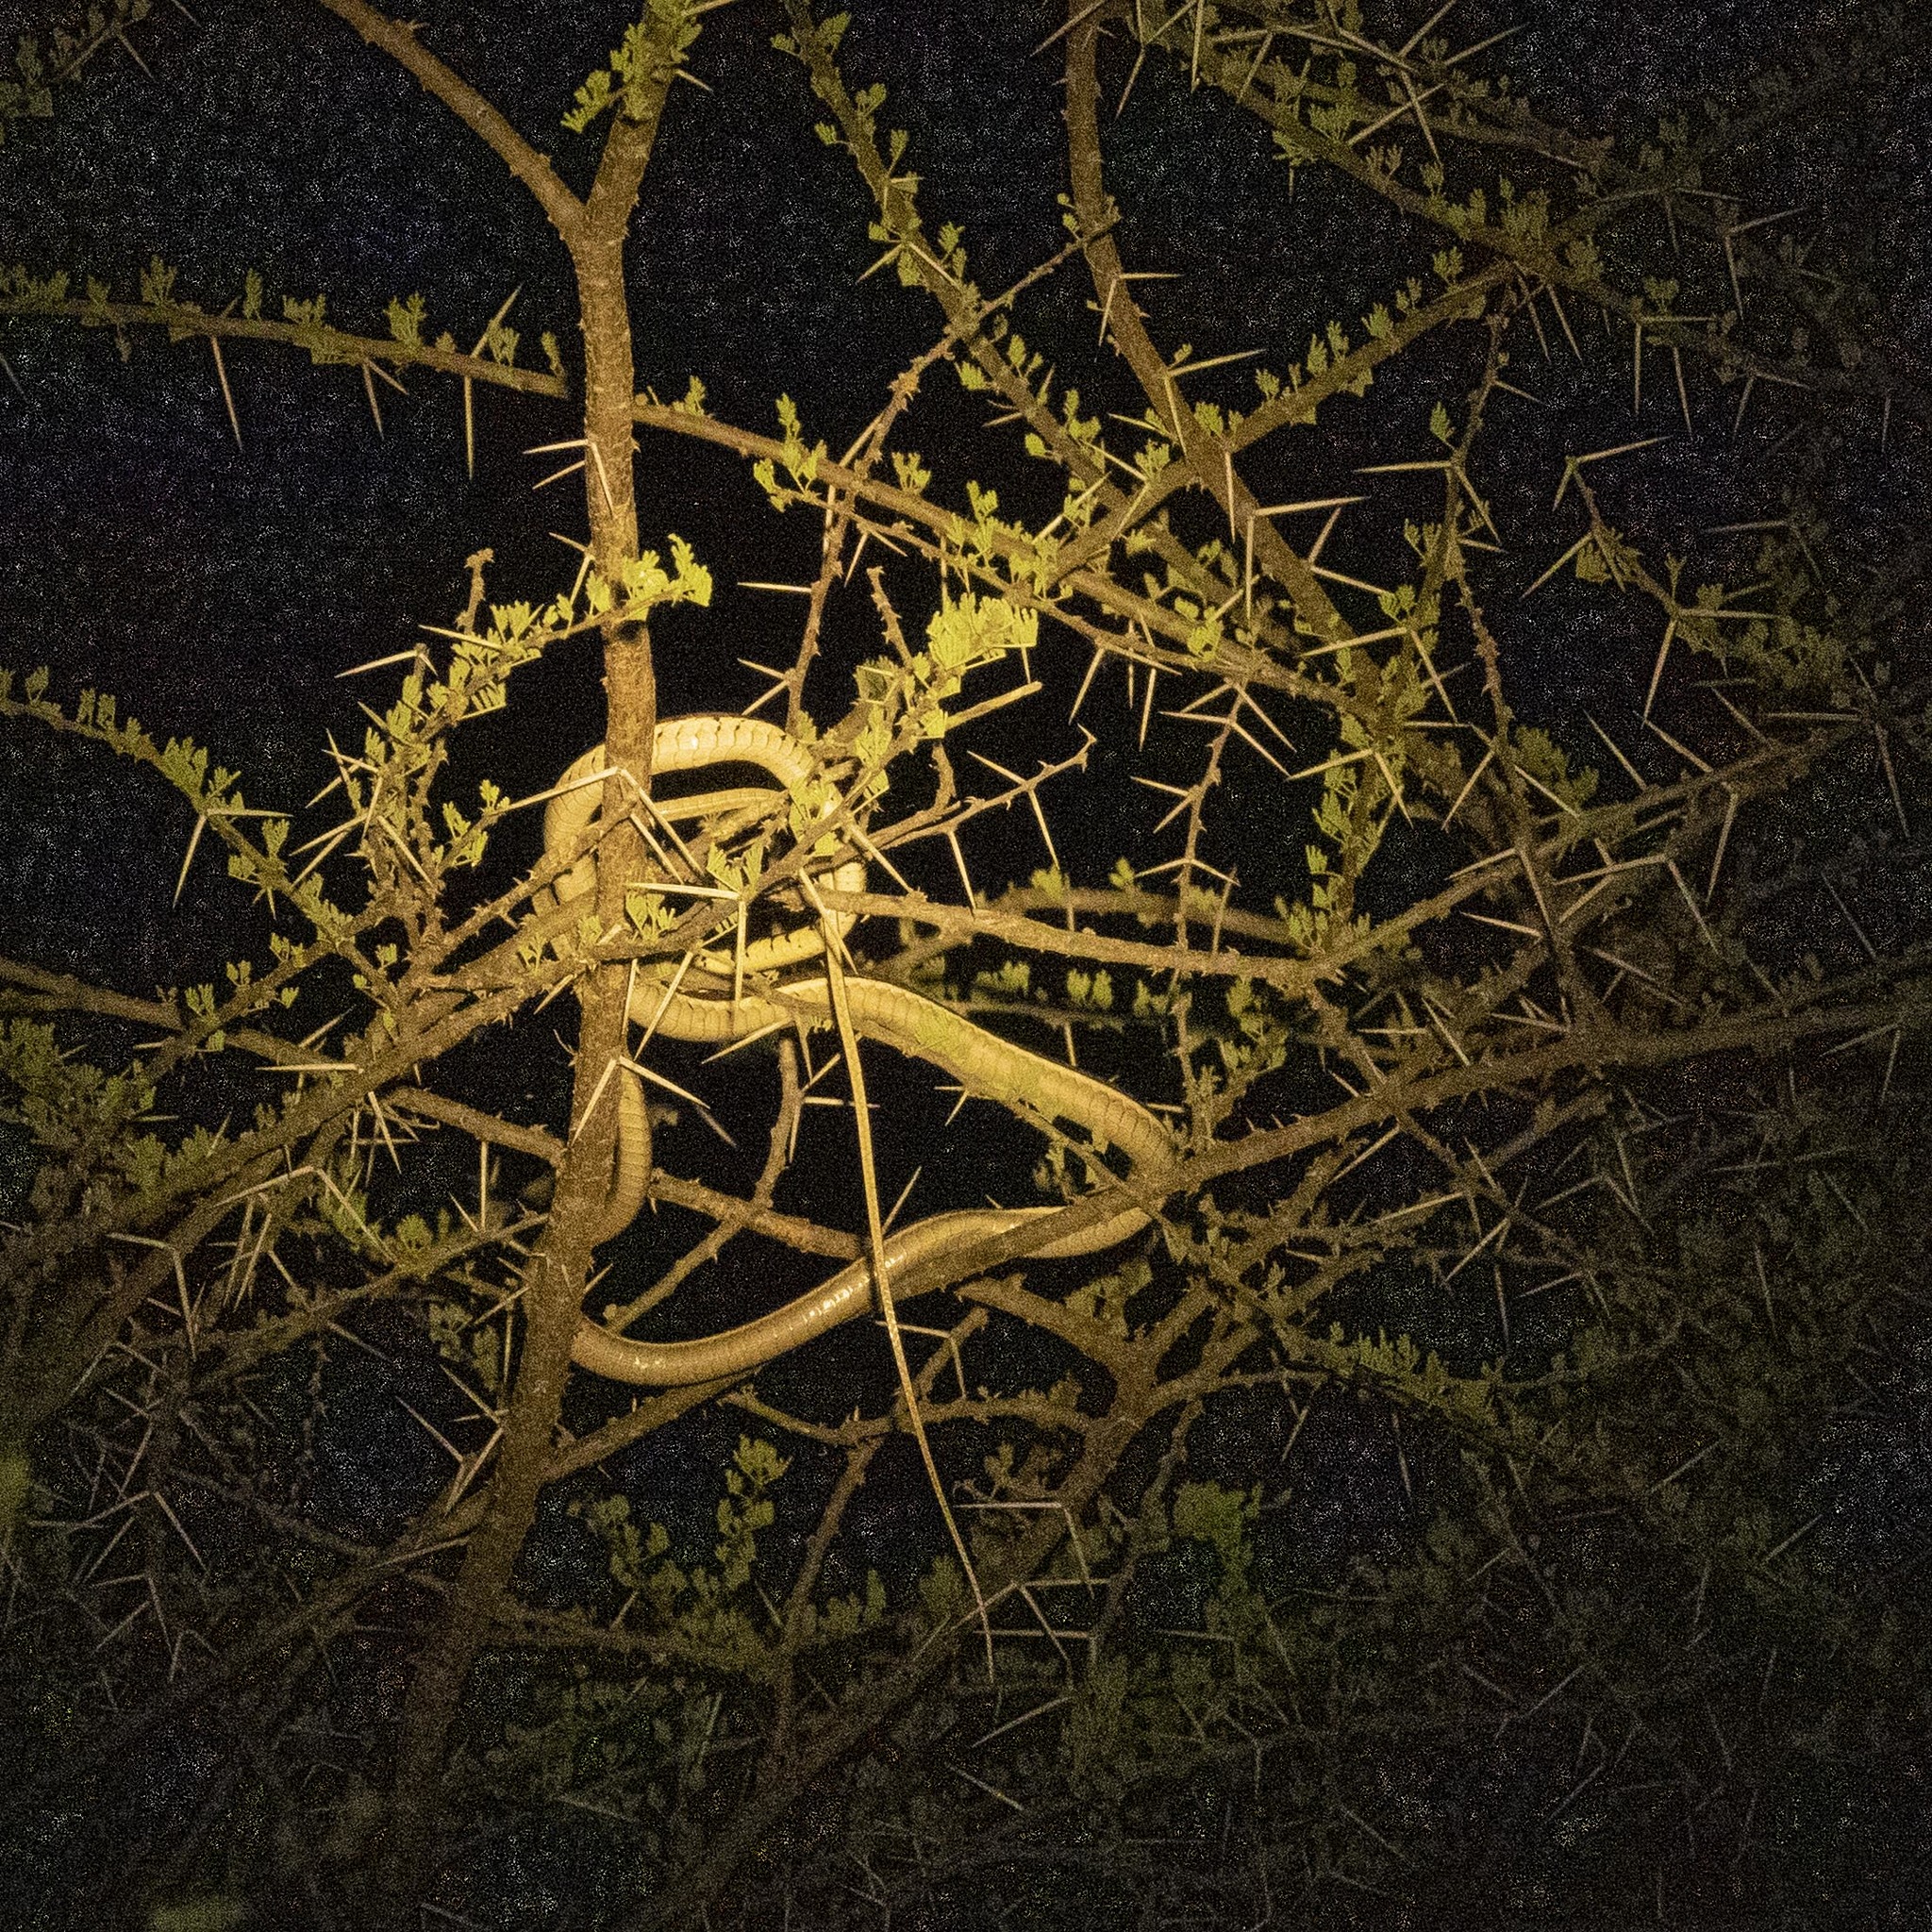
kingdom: Animalia
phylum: Chordata
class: Squamata
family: Colubridae
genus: Dendrelaphis
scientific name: Dendrelaphis tristis
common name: Daudin's bronzeback
